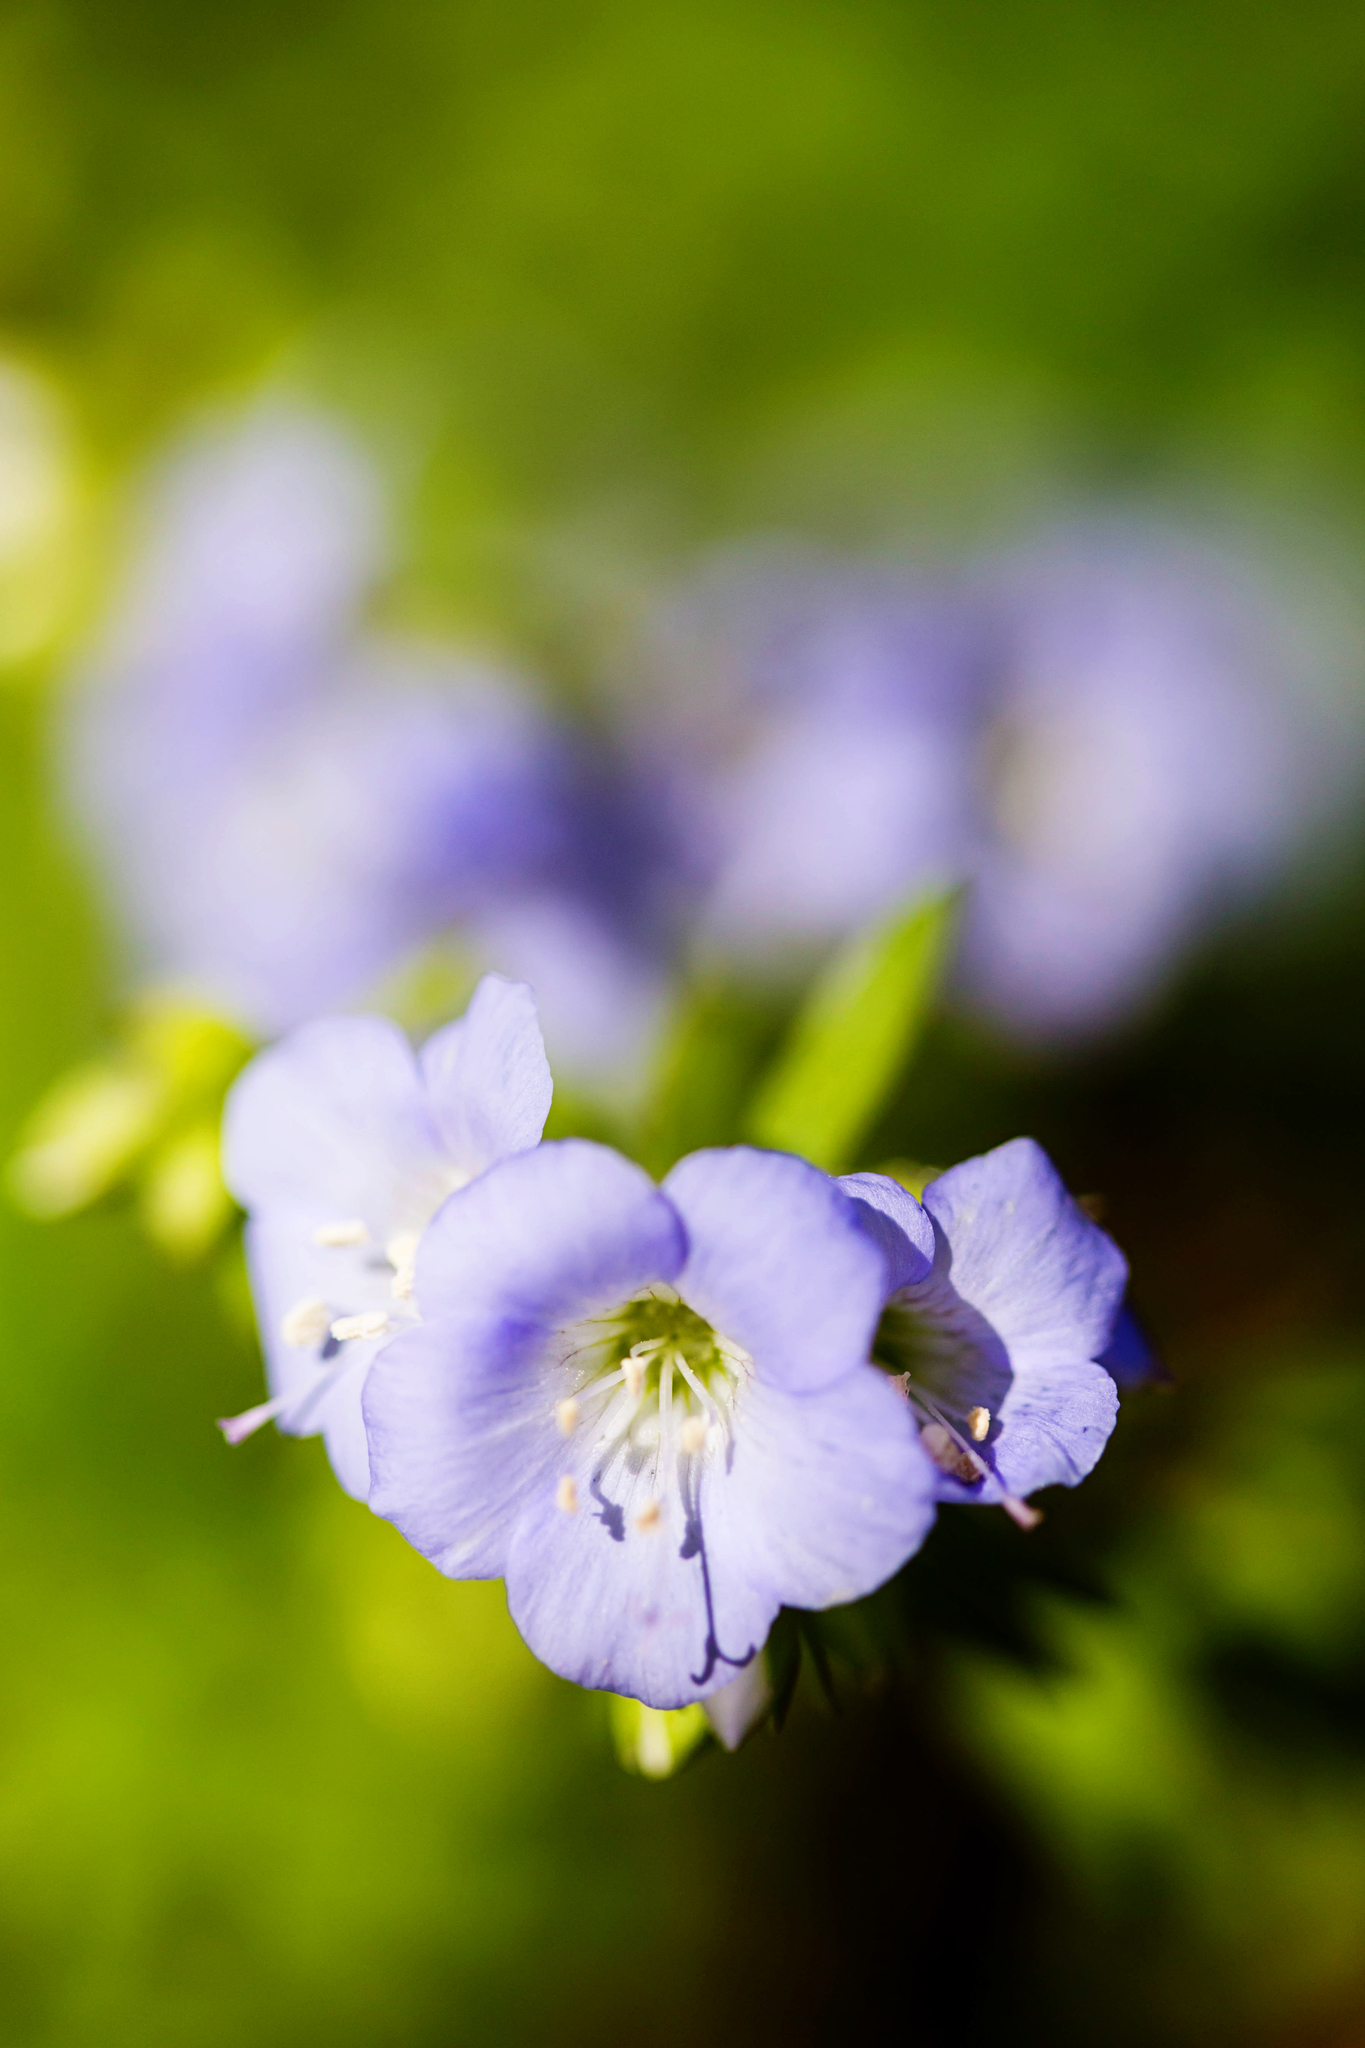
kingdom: Plantae
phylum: Tracheophyta
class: Magnoliopsida
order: Ericales
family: Polemoniaceae
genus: Polemonium
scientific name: Polemonium reptans
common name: Creeping jacob's-ladder
